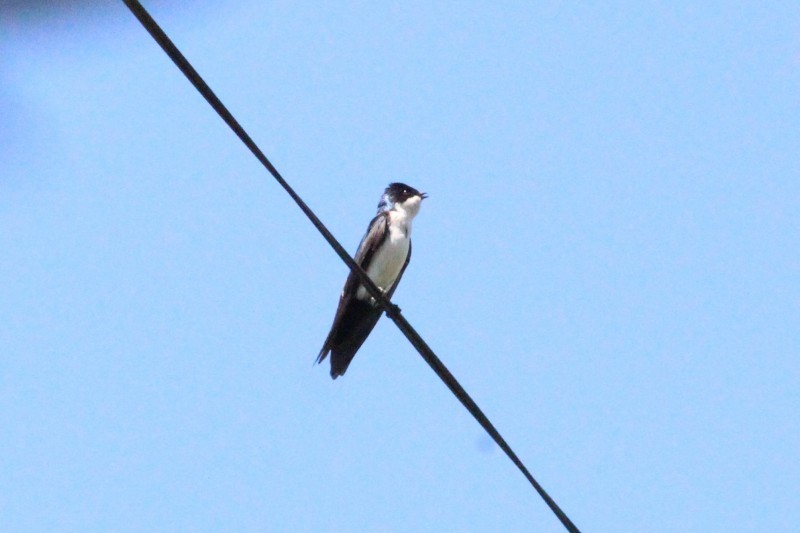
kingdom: Animalia
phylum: Chordata
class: Aves
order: Passeriformes
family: Hirundinidae
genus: Notiochelidon
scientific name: Notiochelidon cyanoleuca
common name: Blue-and-white swallow
